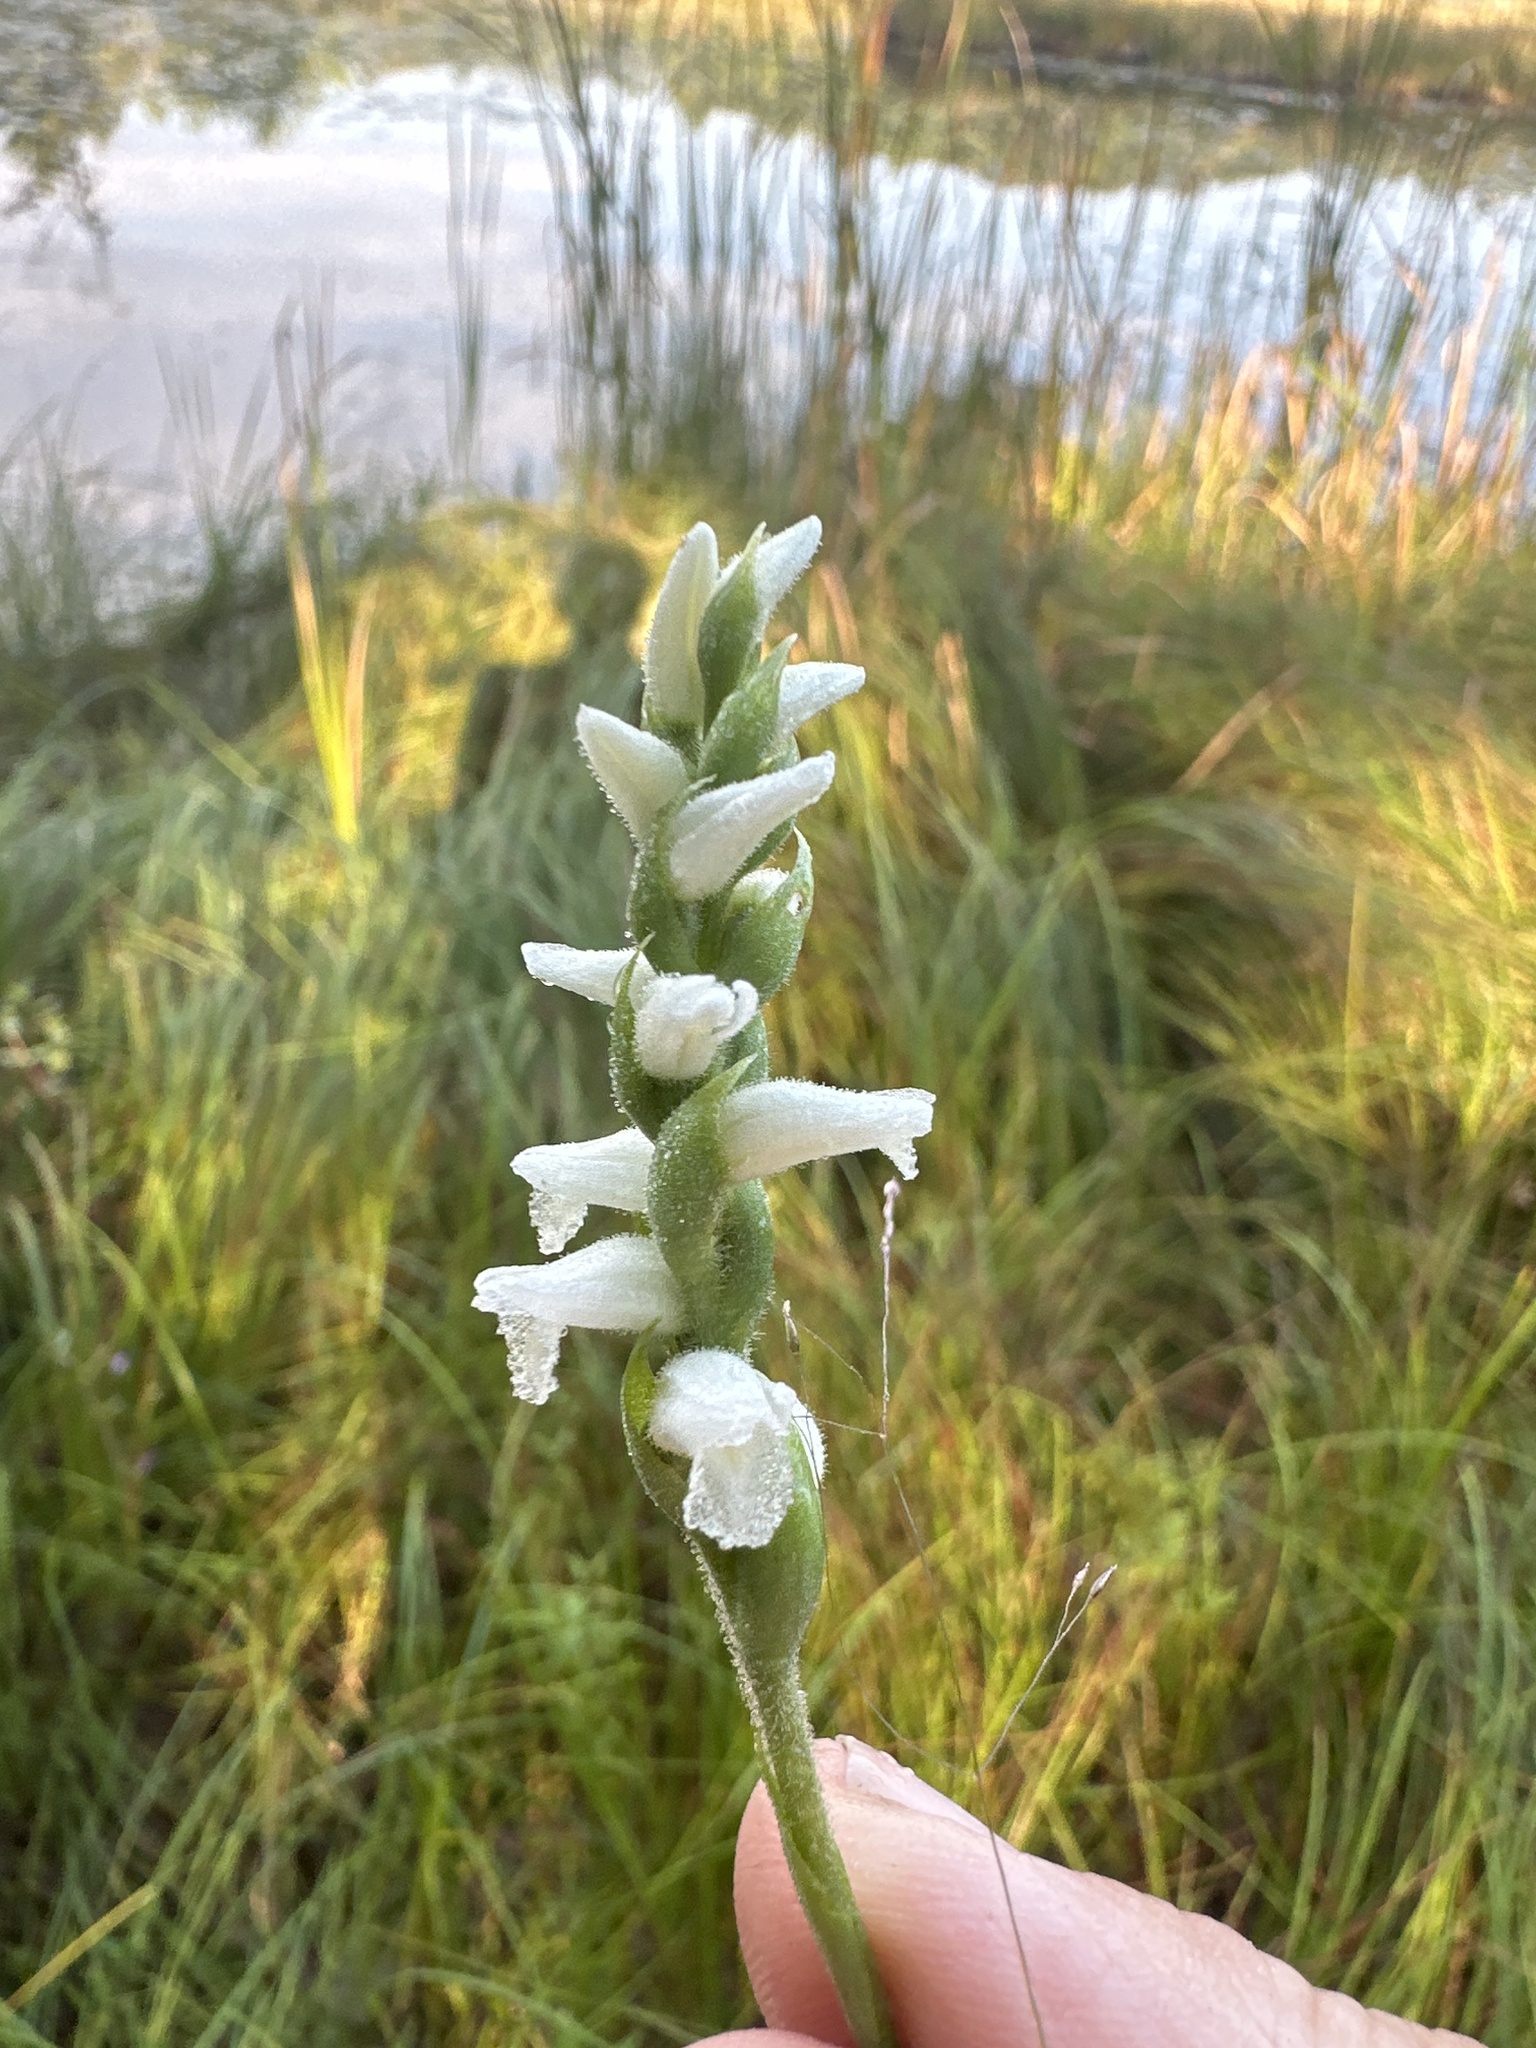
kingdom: Plantae
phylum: Tracheophyta
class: Liliopsida
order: Asparagales
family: Orchidaceae
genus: Spiranthes
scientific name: Spiranthes cernua
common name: Dropping ladies'-tresses
